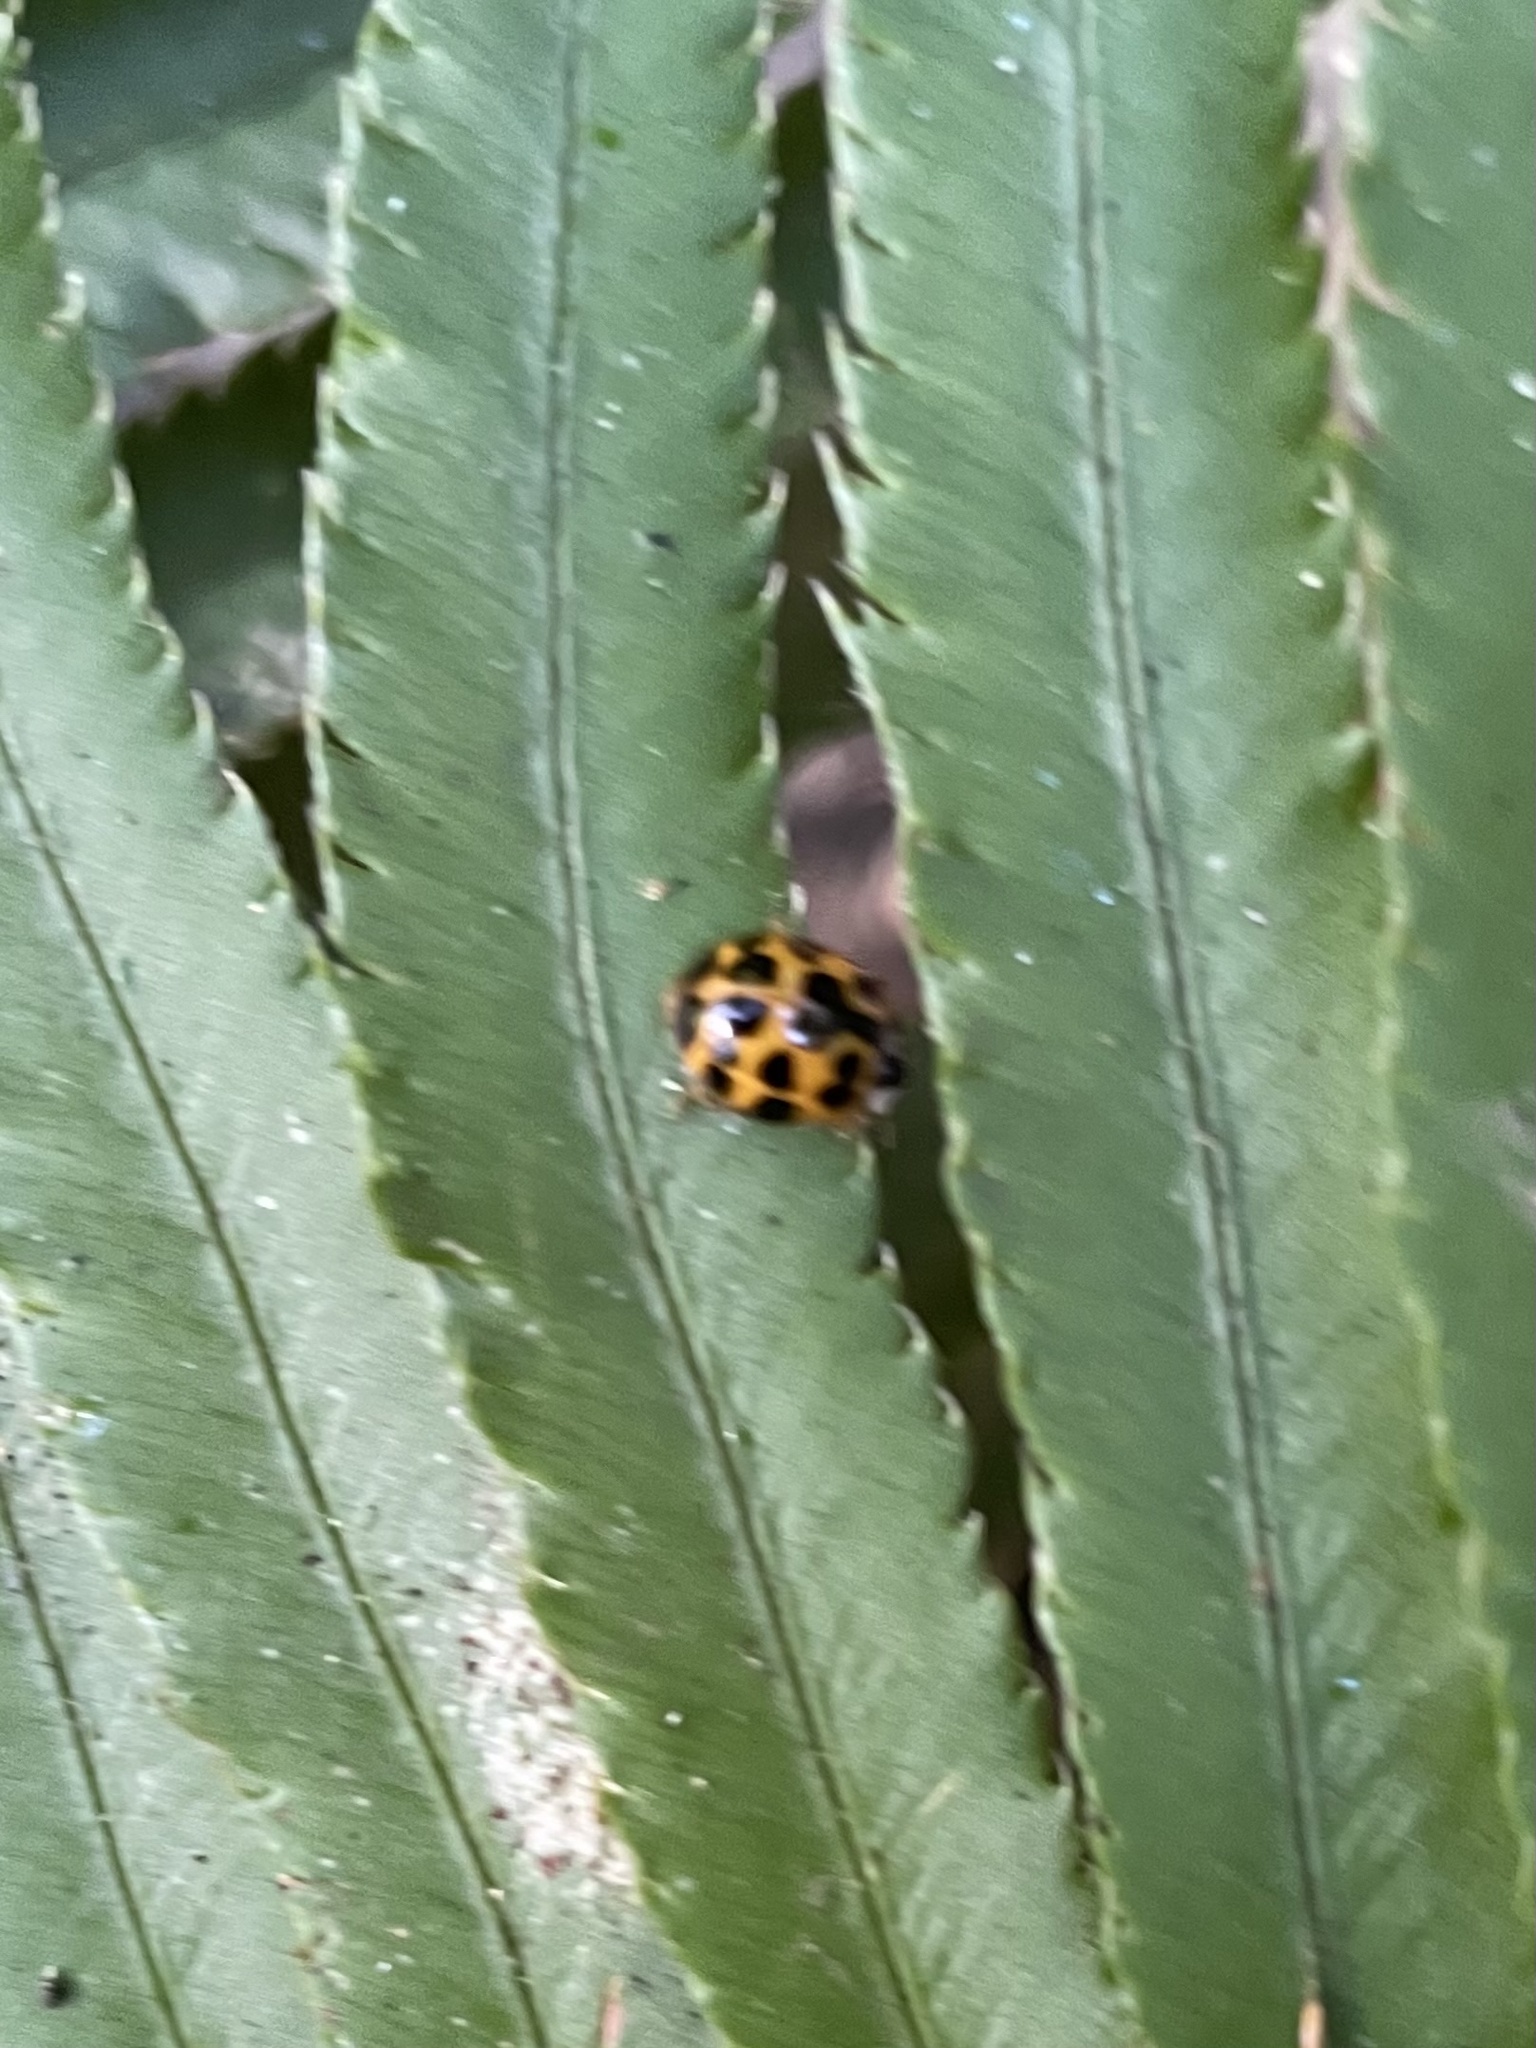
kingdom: Animalia
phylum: Arthropoda
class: Insecta
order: Coleoptera
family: Coccinellidae
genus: Harmonia
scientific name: Harmonia axyridis
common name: Harlequin ladybird
